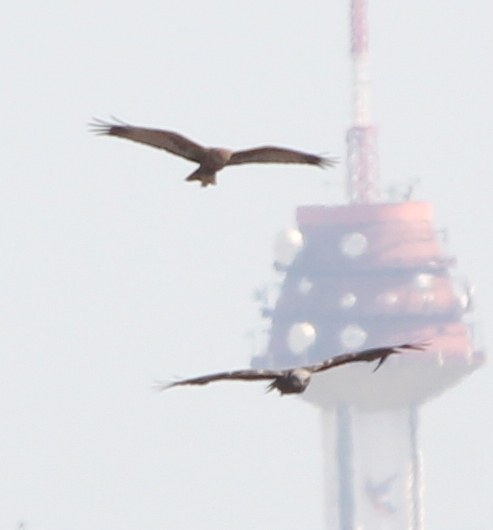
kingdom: Animalia
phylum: Chordata
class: Aves
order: Accipitriformes
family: Accipitridae
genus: Circus
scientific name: Circus aeruginosus
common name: Western marsh harrier
